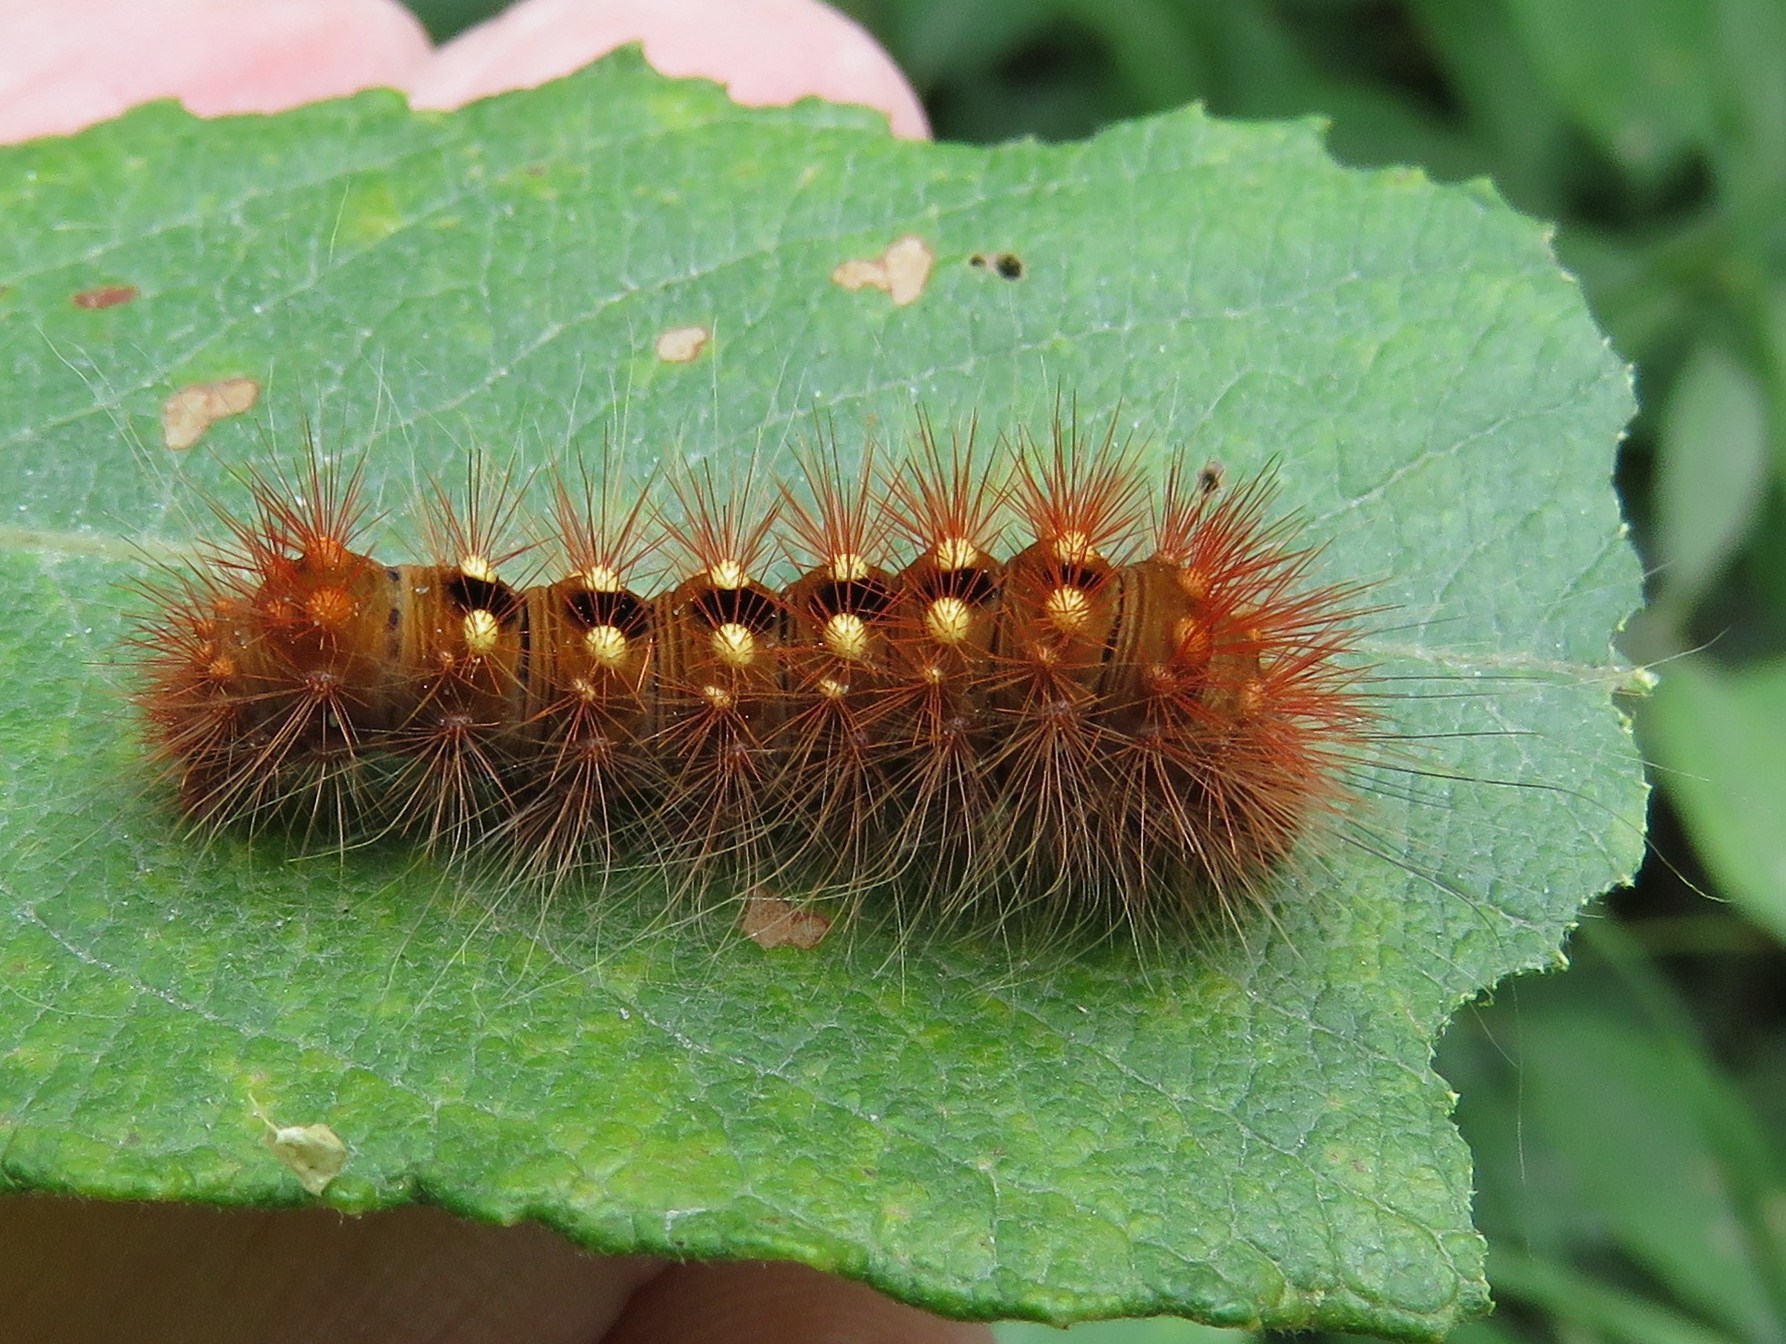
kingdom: Animalia
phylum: Arthropoda
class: Insecta
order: Lepidoptera
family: Noctuidae
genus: Acronicta
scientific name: Acronicta auricoma
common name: Scarce dagger
